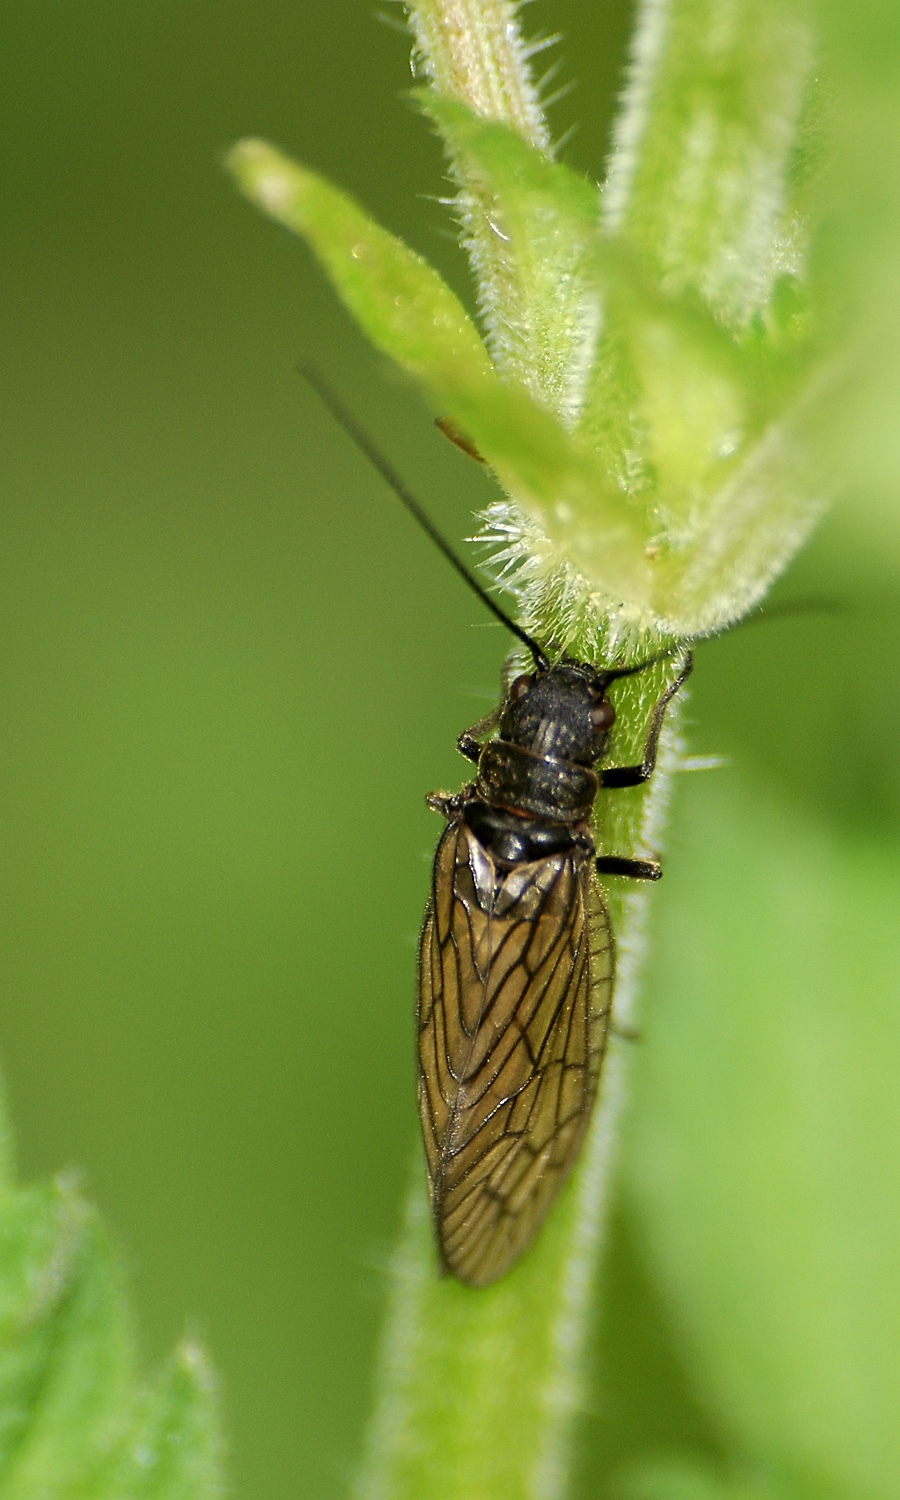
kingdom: Animalia
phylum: Arthropoda
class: Insecta
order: Megaloptera
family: Sialidae
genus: Sialis
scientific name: Sialis
